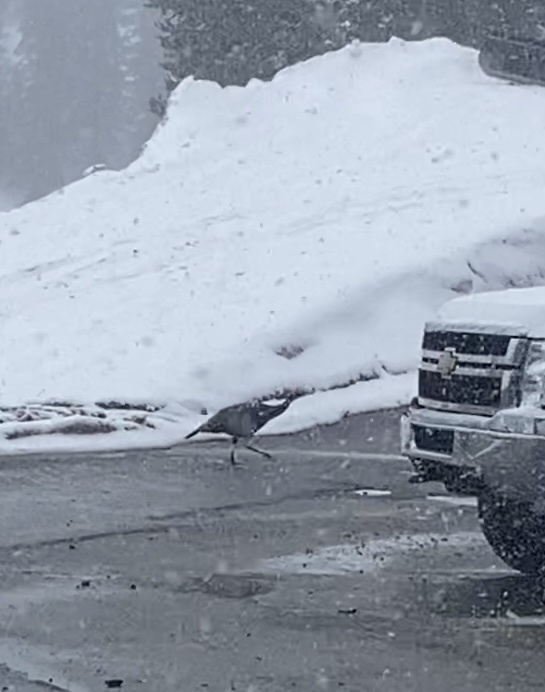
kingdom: Animalia
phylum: Chordata
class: Aves
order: Galliformes
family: Phasianidae
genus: Meleagris
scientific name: Meleagris gallopavo
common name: Wild turkey
